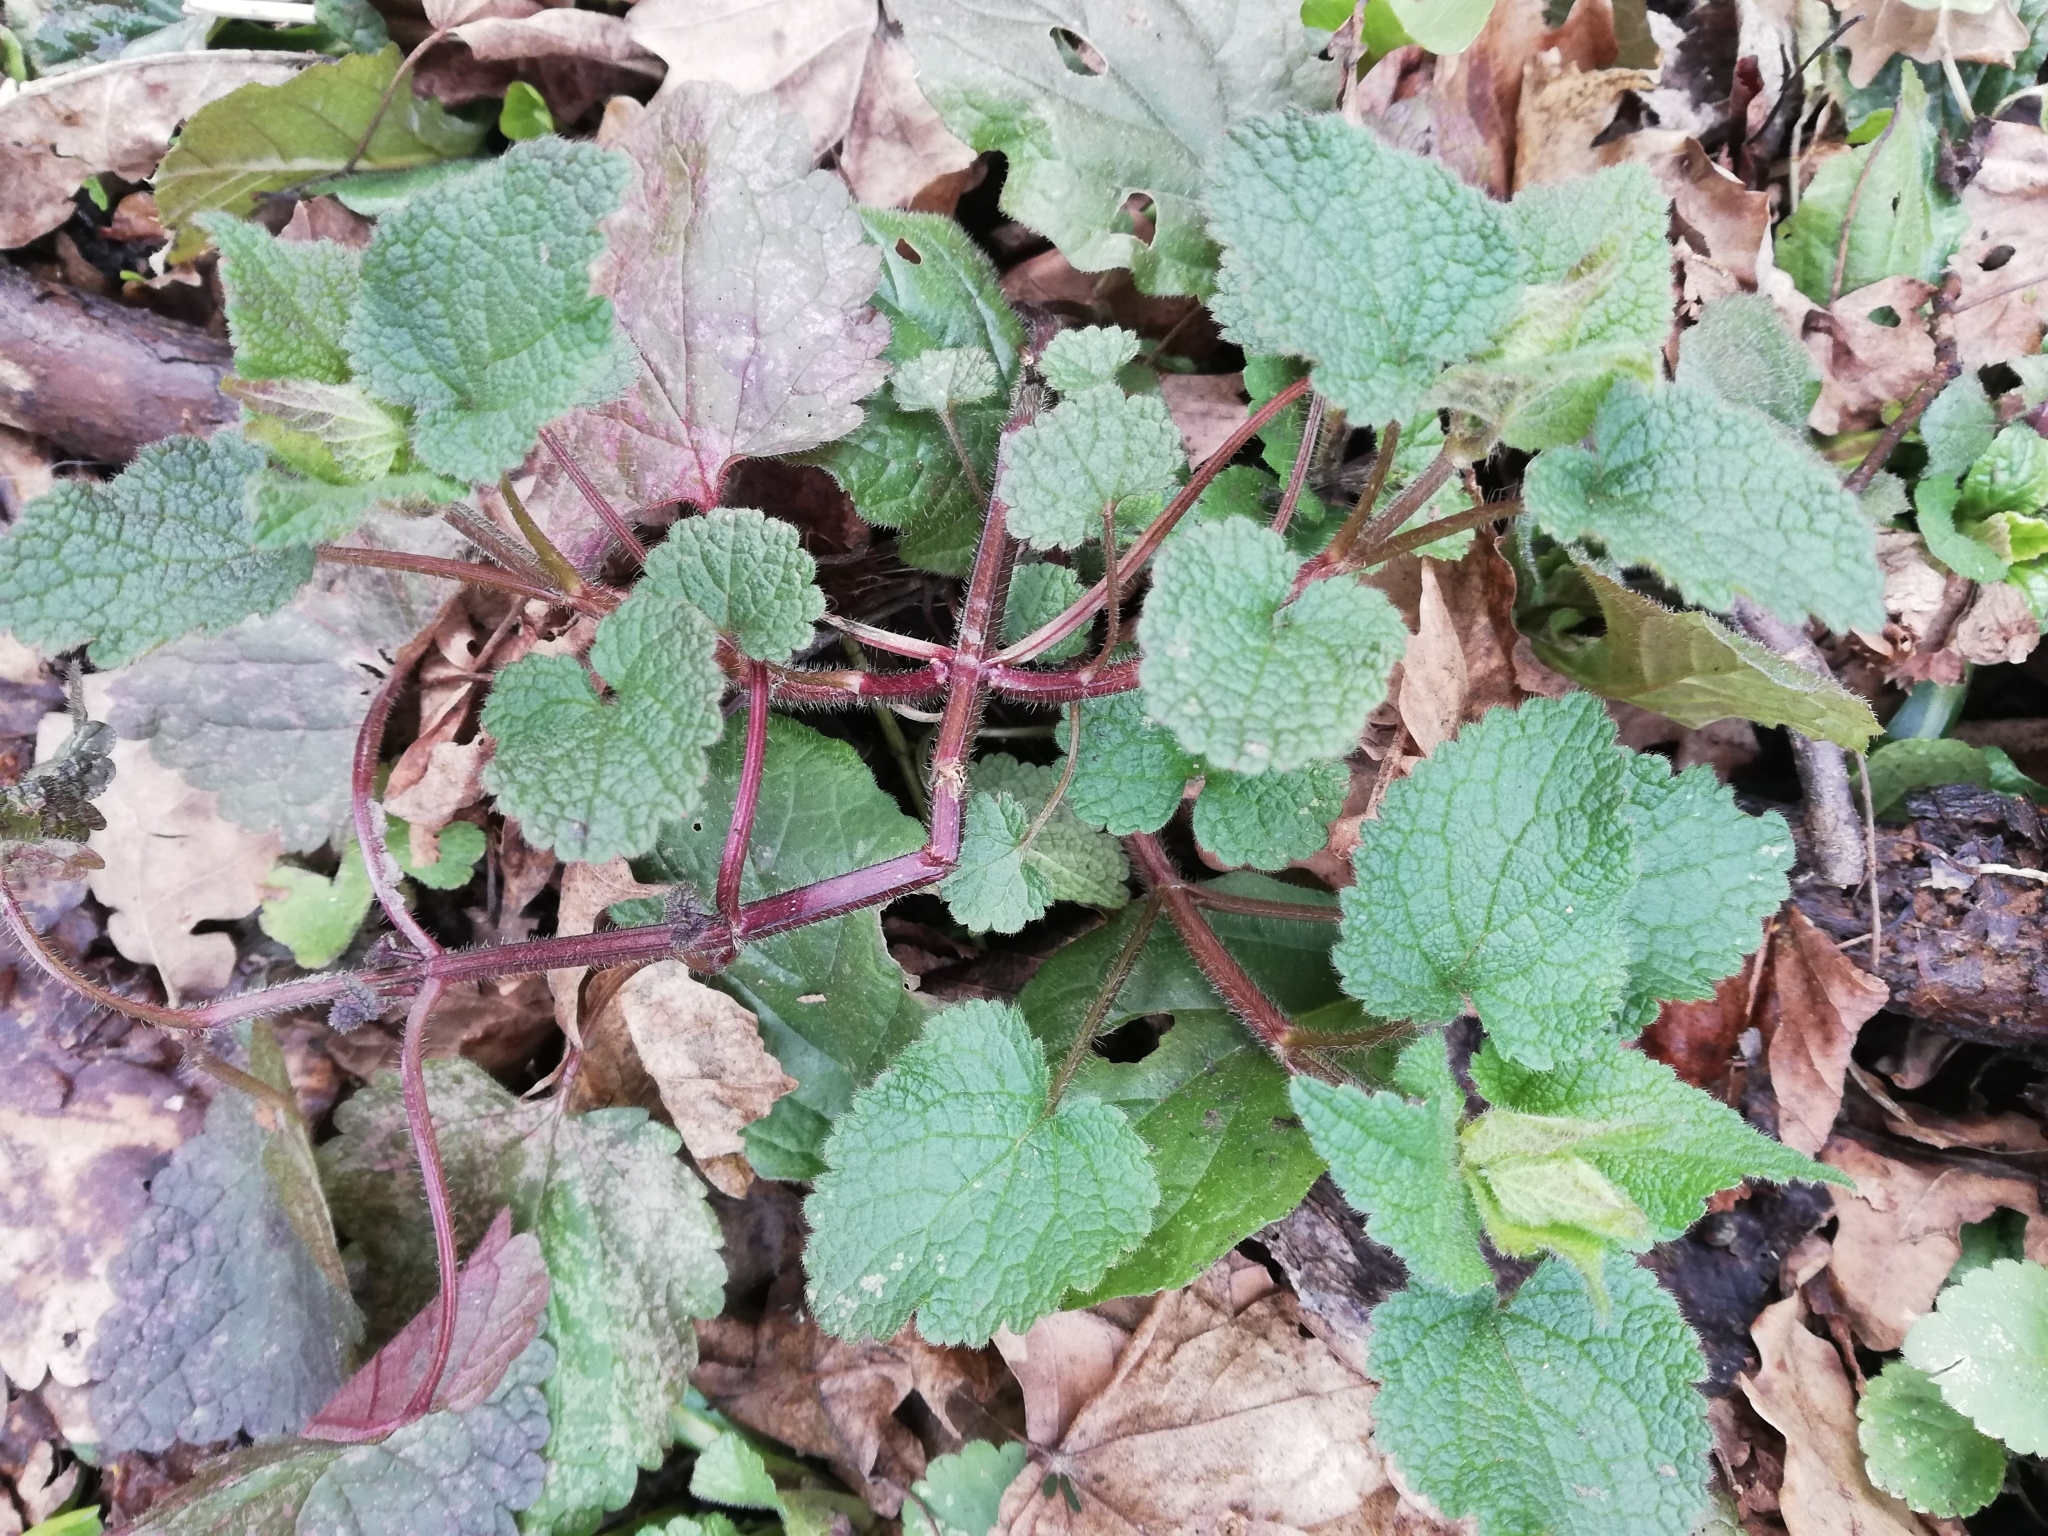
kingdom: Plantae
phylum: Tracheophyta
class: Magnoliopsida
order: Lamiales
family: Lamiaceae
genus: Lamium
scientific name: Lamium maculatum
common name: Spotted dead-nettle
